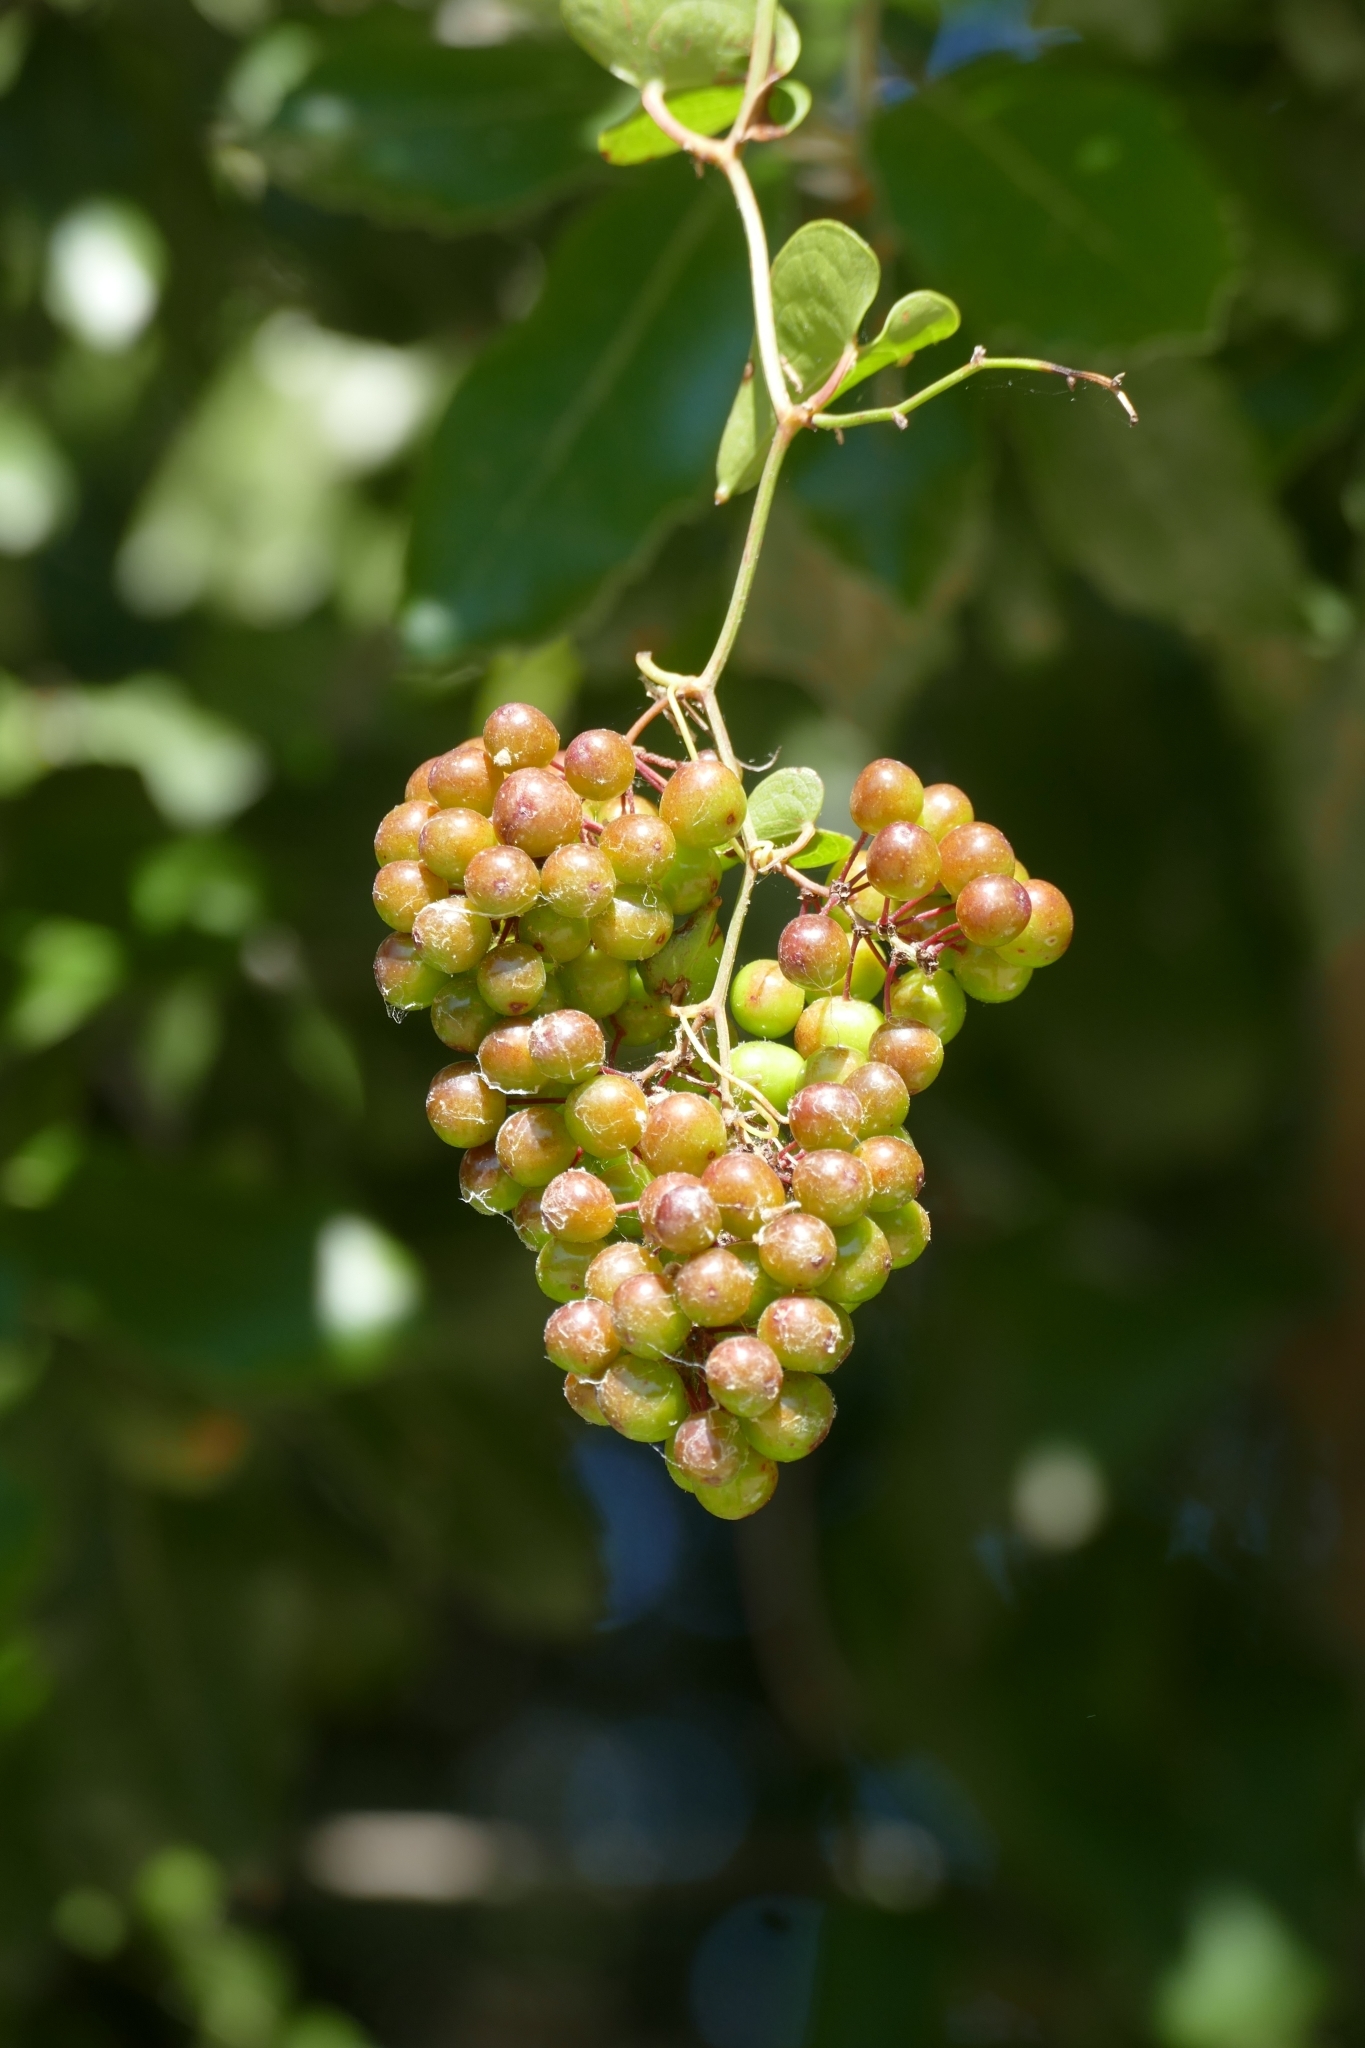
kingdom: Plantae
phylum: Tracheophyta
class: Liliopsida
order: Liliales
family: Smilacaceae
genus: Smilax
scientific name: Smilax aspera
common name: Common smilax
